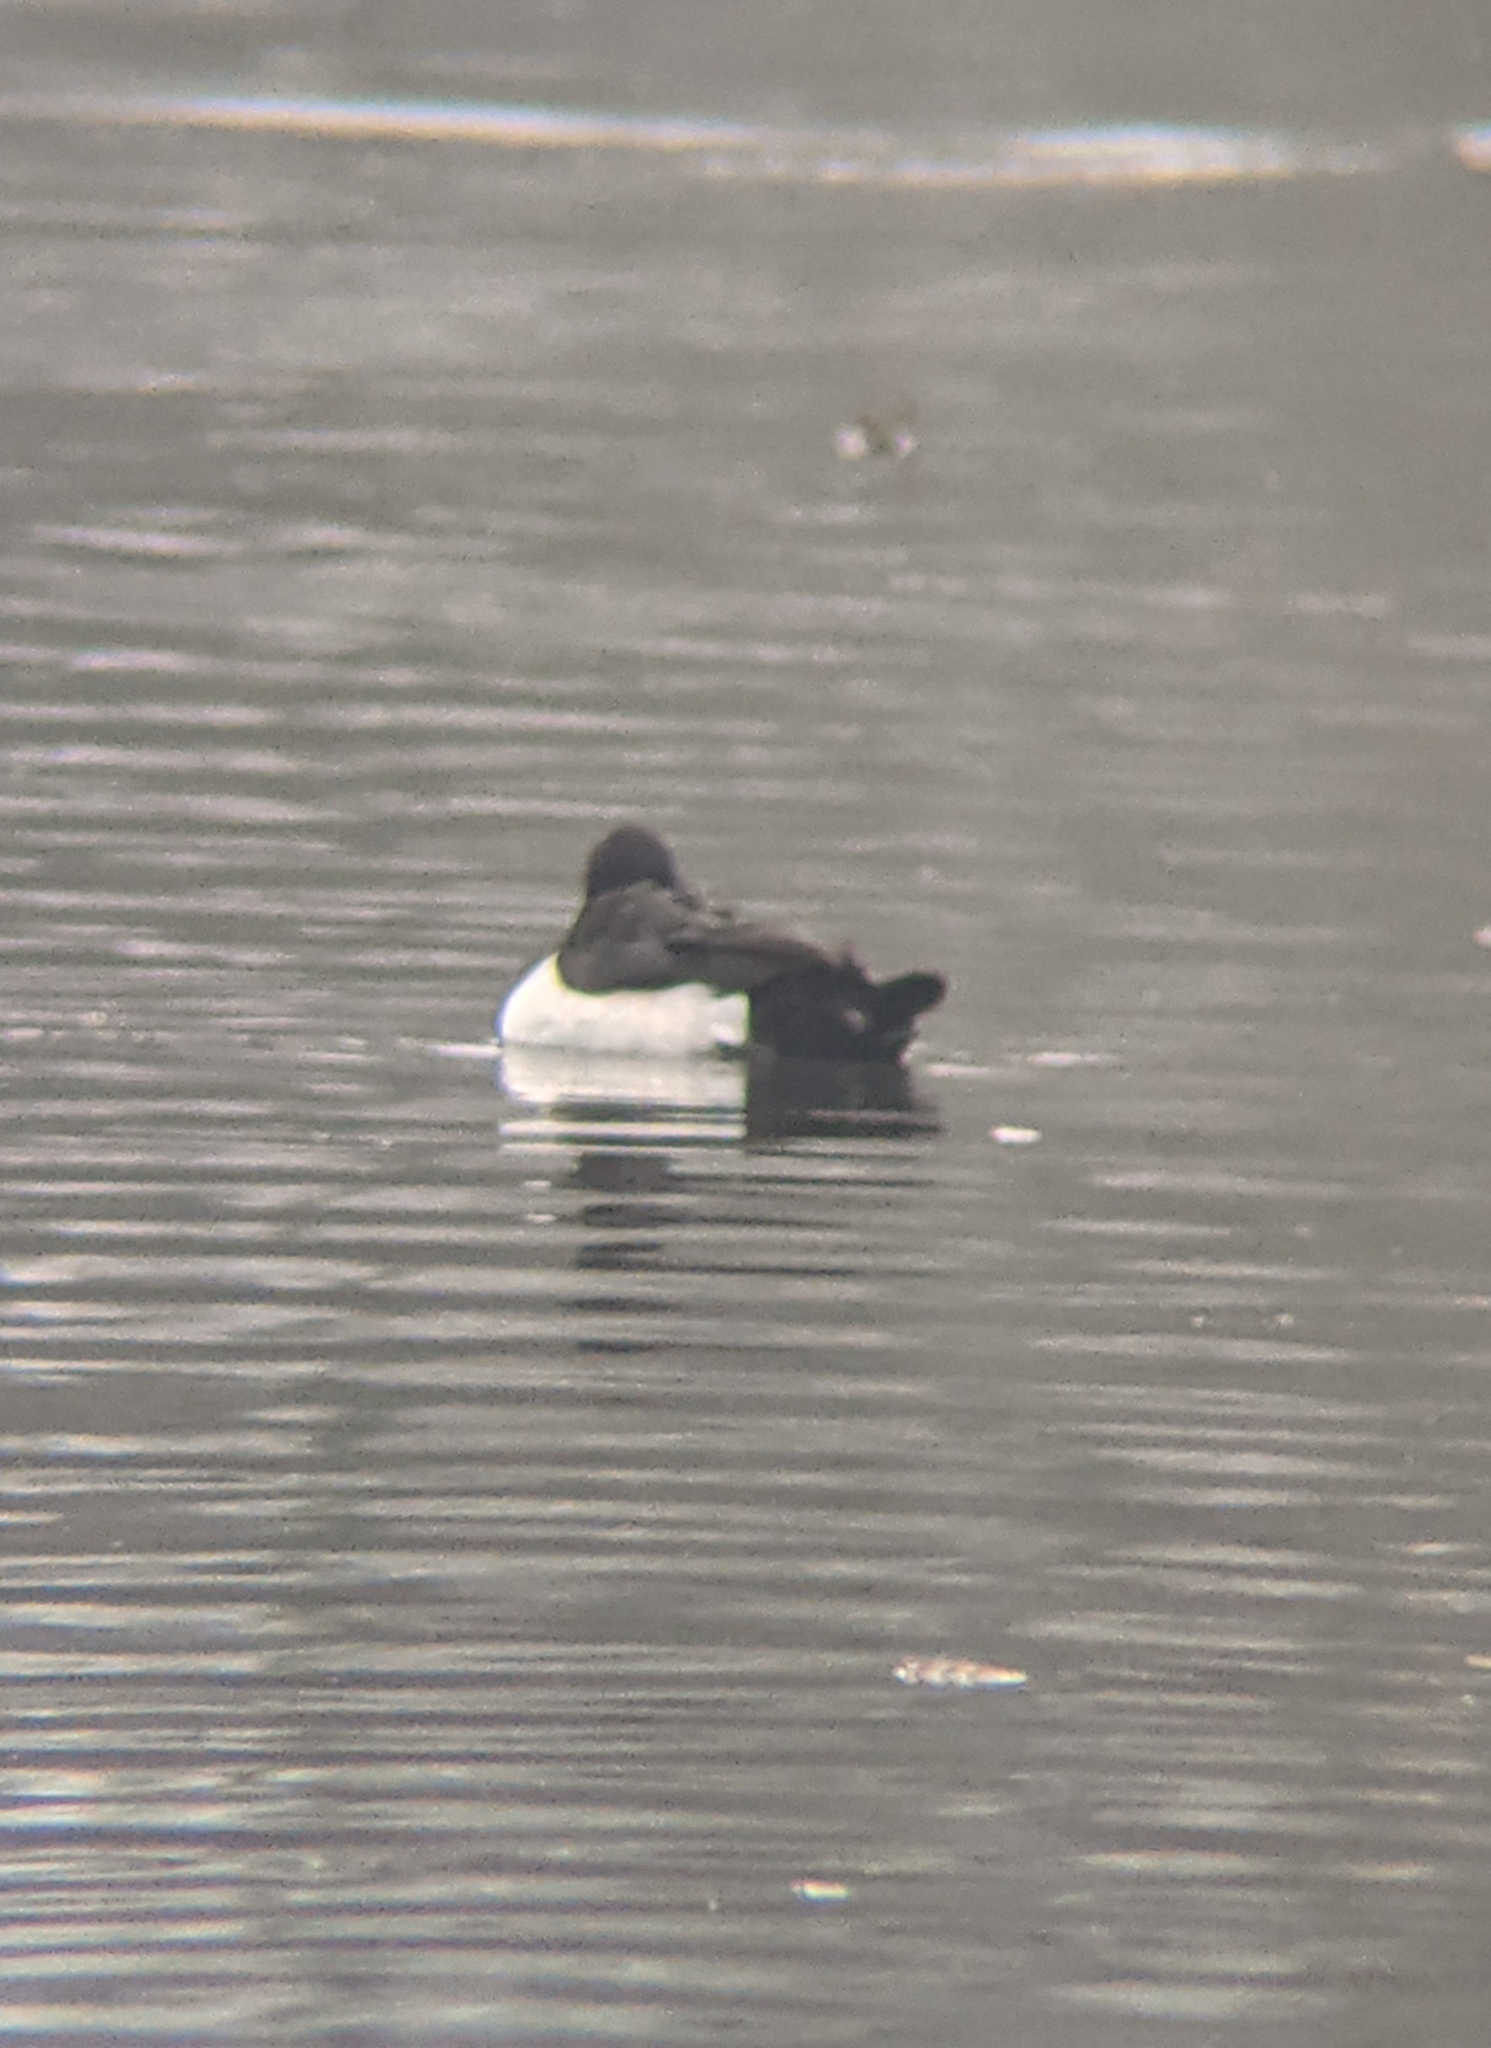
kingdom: Animalia
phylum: Chordata
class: Aves
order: Anseriformes
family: Anatidae
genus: Aythya
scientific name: Aythya fuligula
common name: Tufted duck
